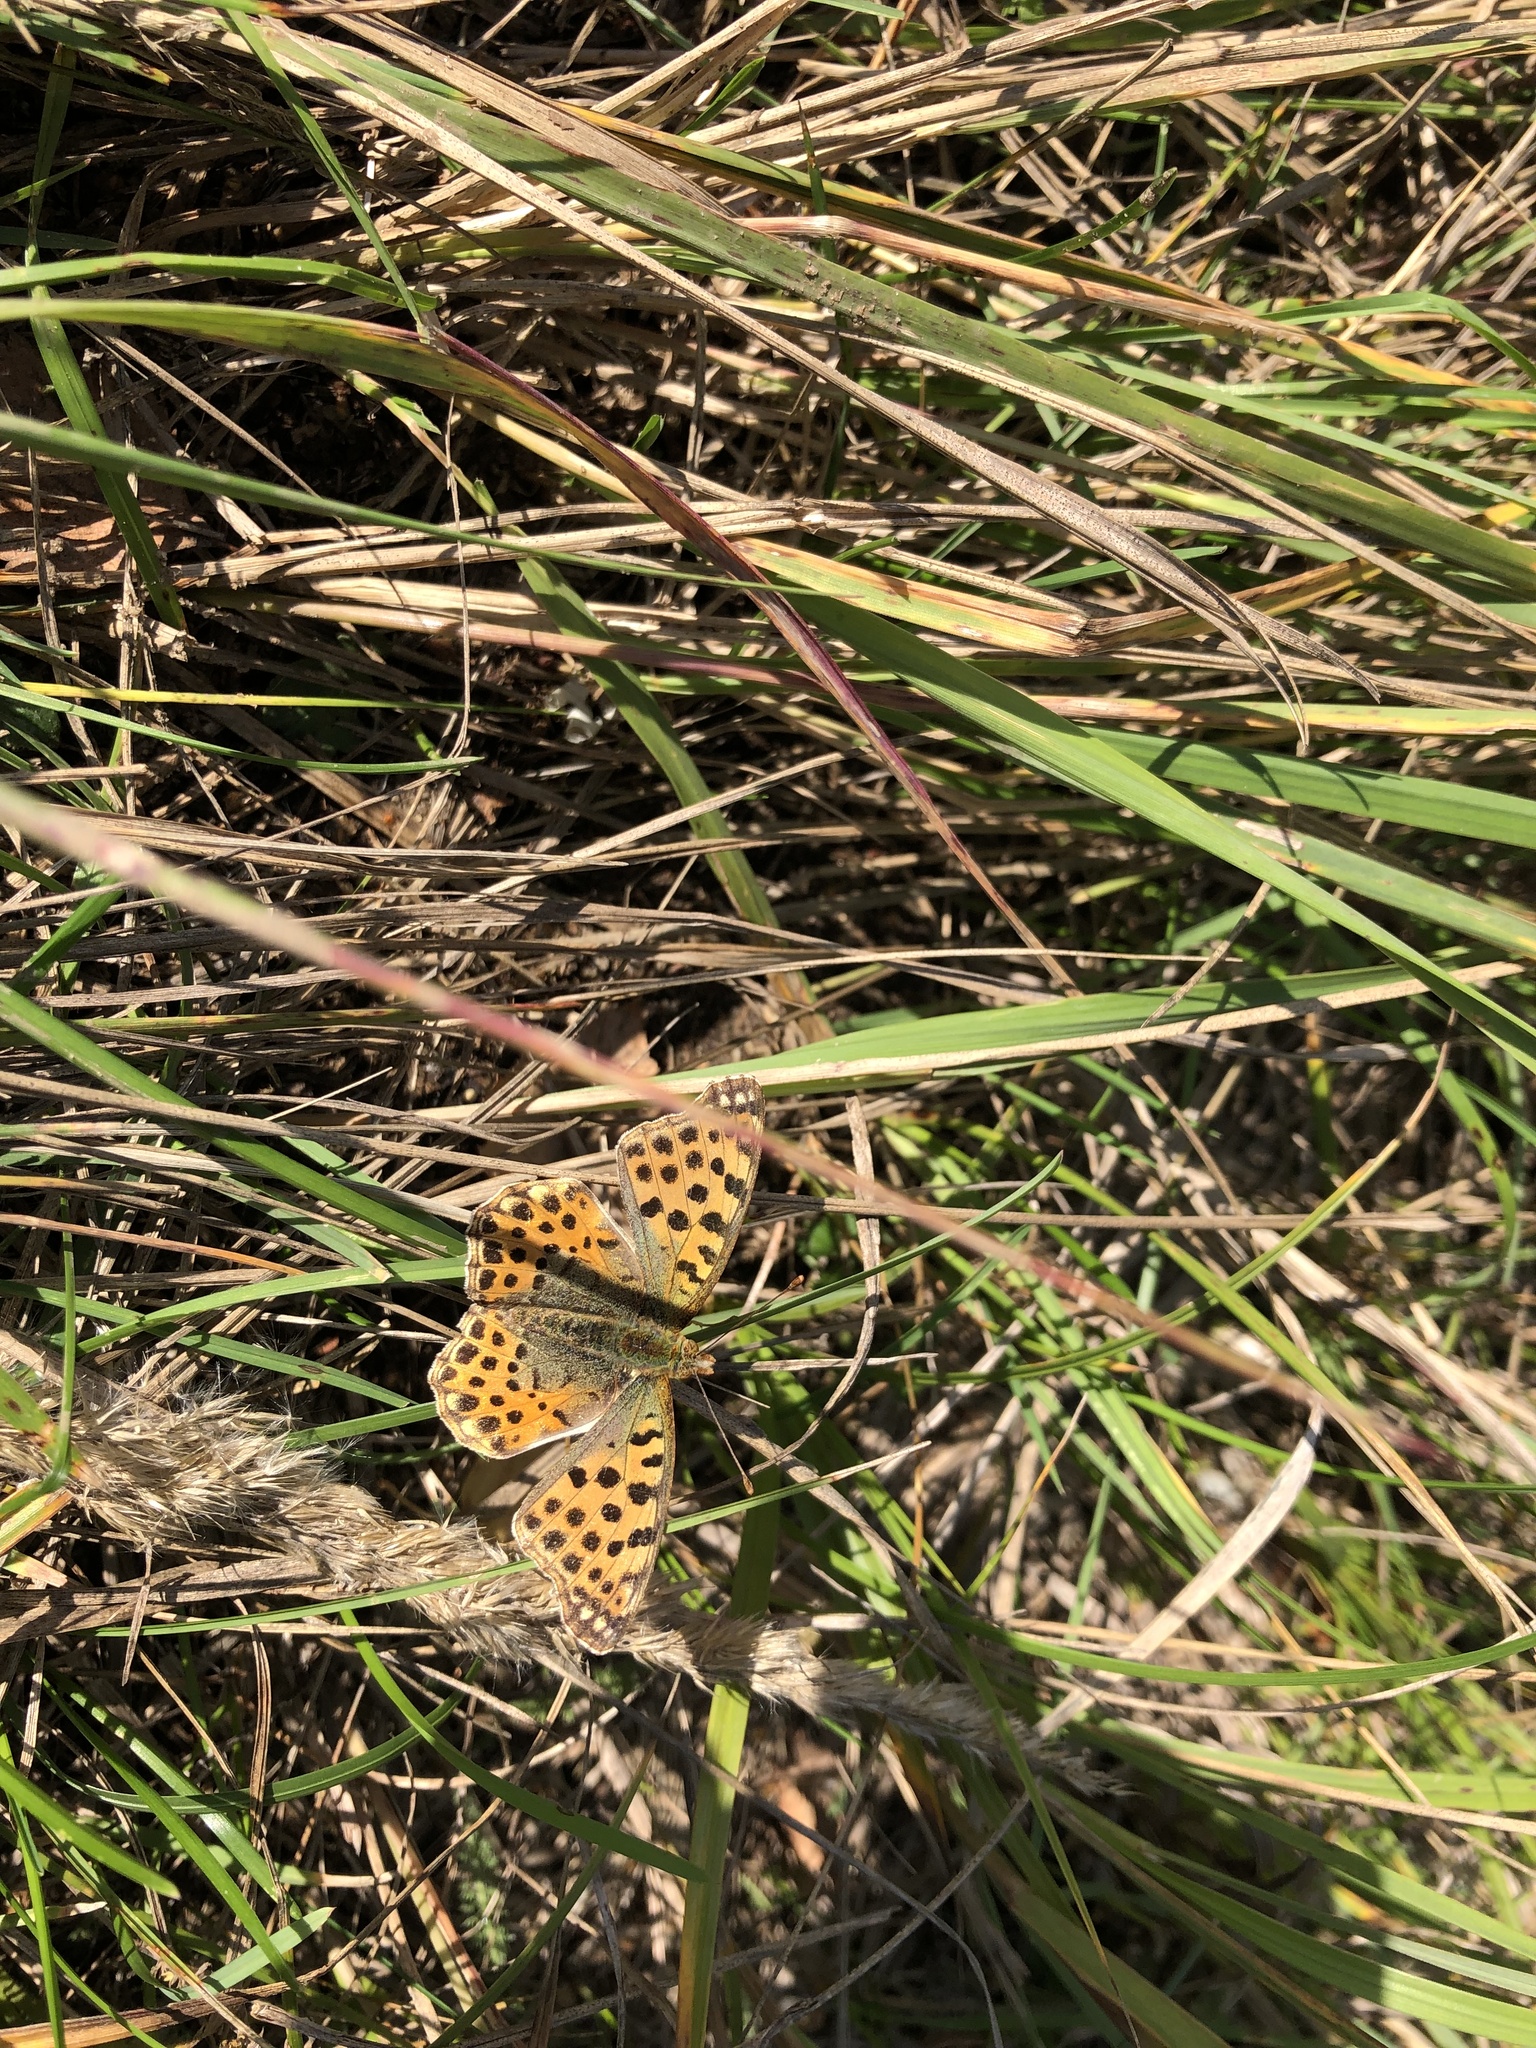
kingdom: Animalia
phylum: Arthropoda
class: Insecta
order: Lepidoptera
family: Nymphalidae
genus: Issoria
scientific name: Issoria lathonia
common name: Queen of spain fritillary
